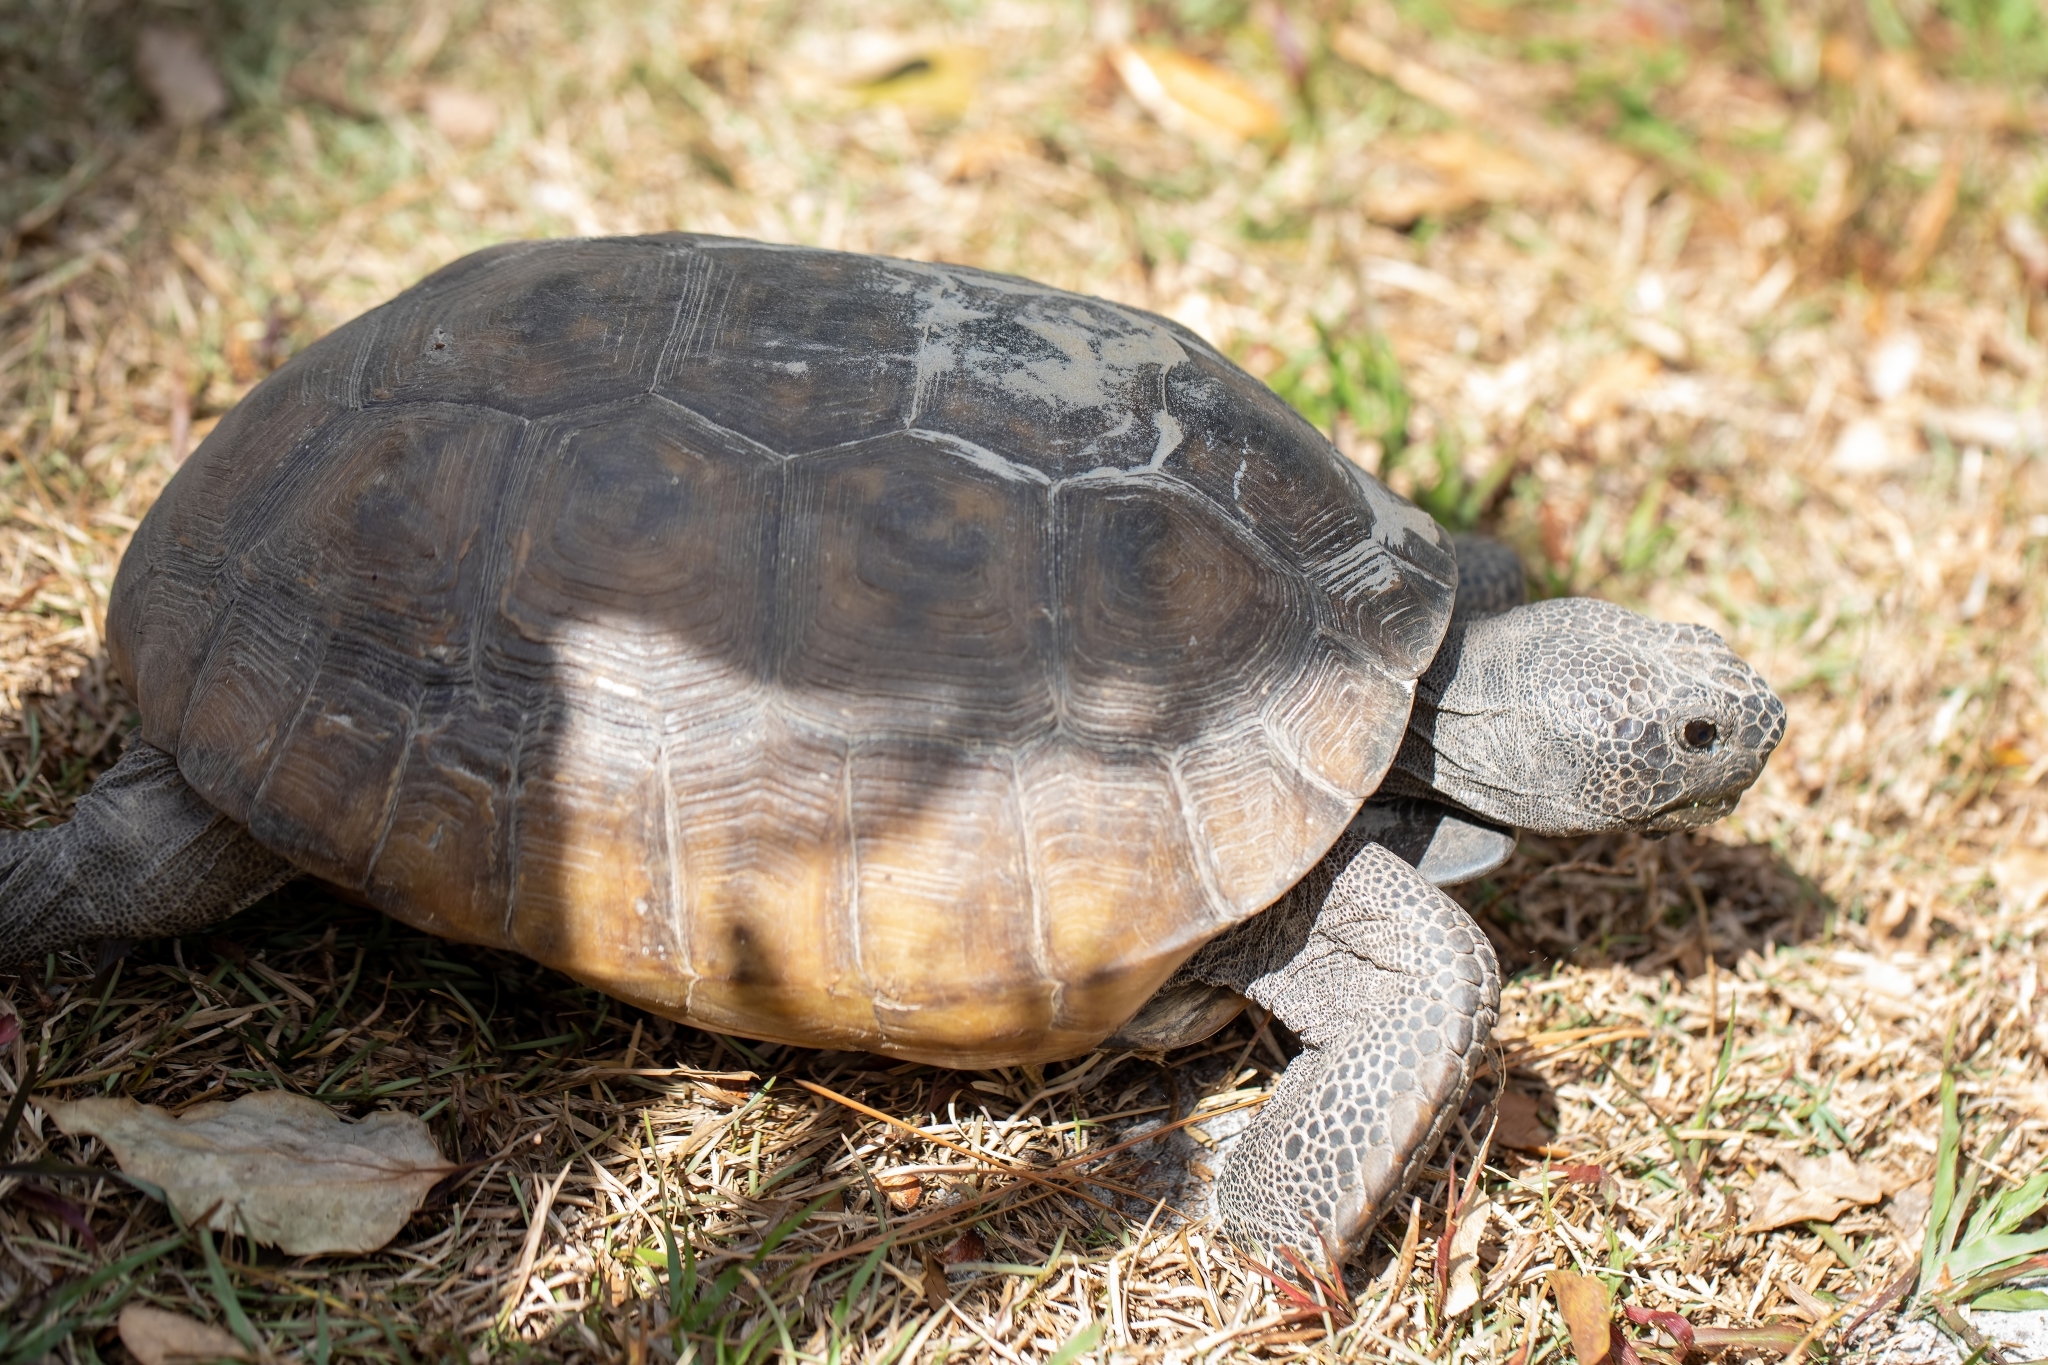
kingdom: Animalia
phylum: Chordata
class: Testudines
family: Testudinidae
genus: Gopherus
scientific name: Gopherus polyphemus
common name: Florida gopher tortoise
